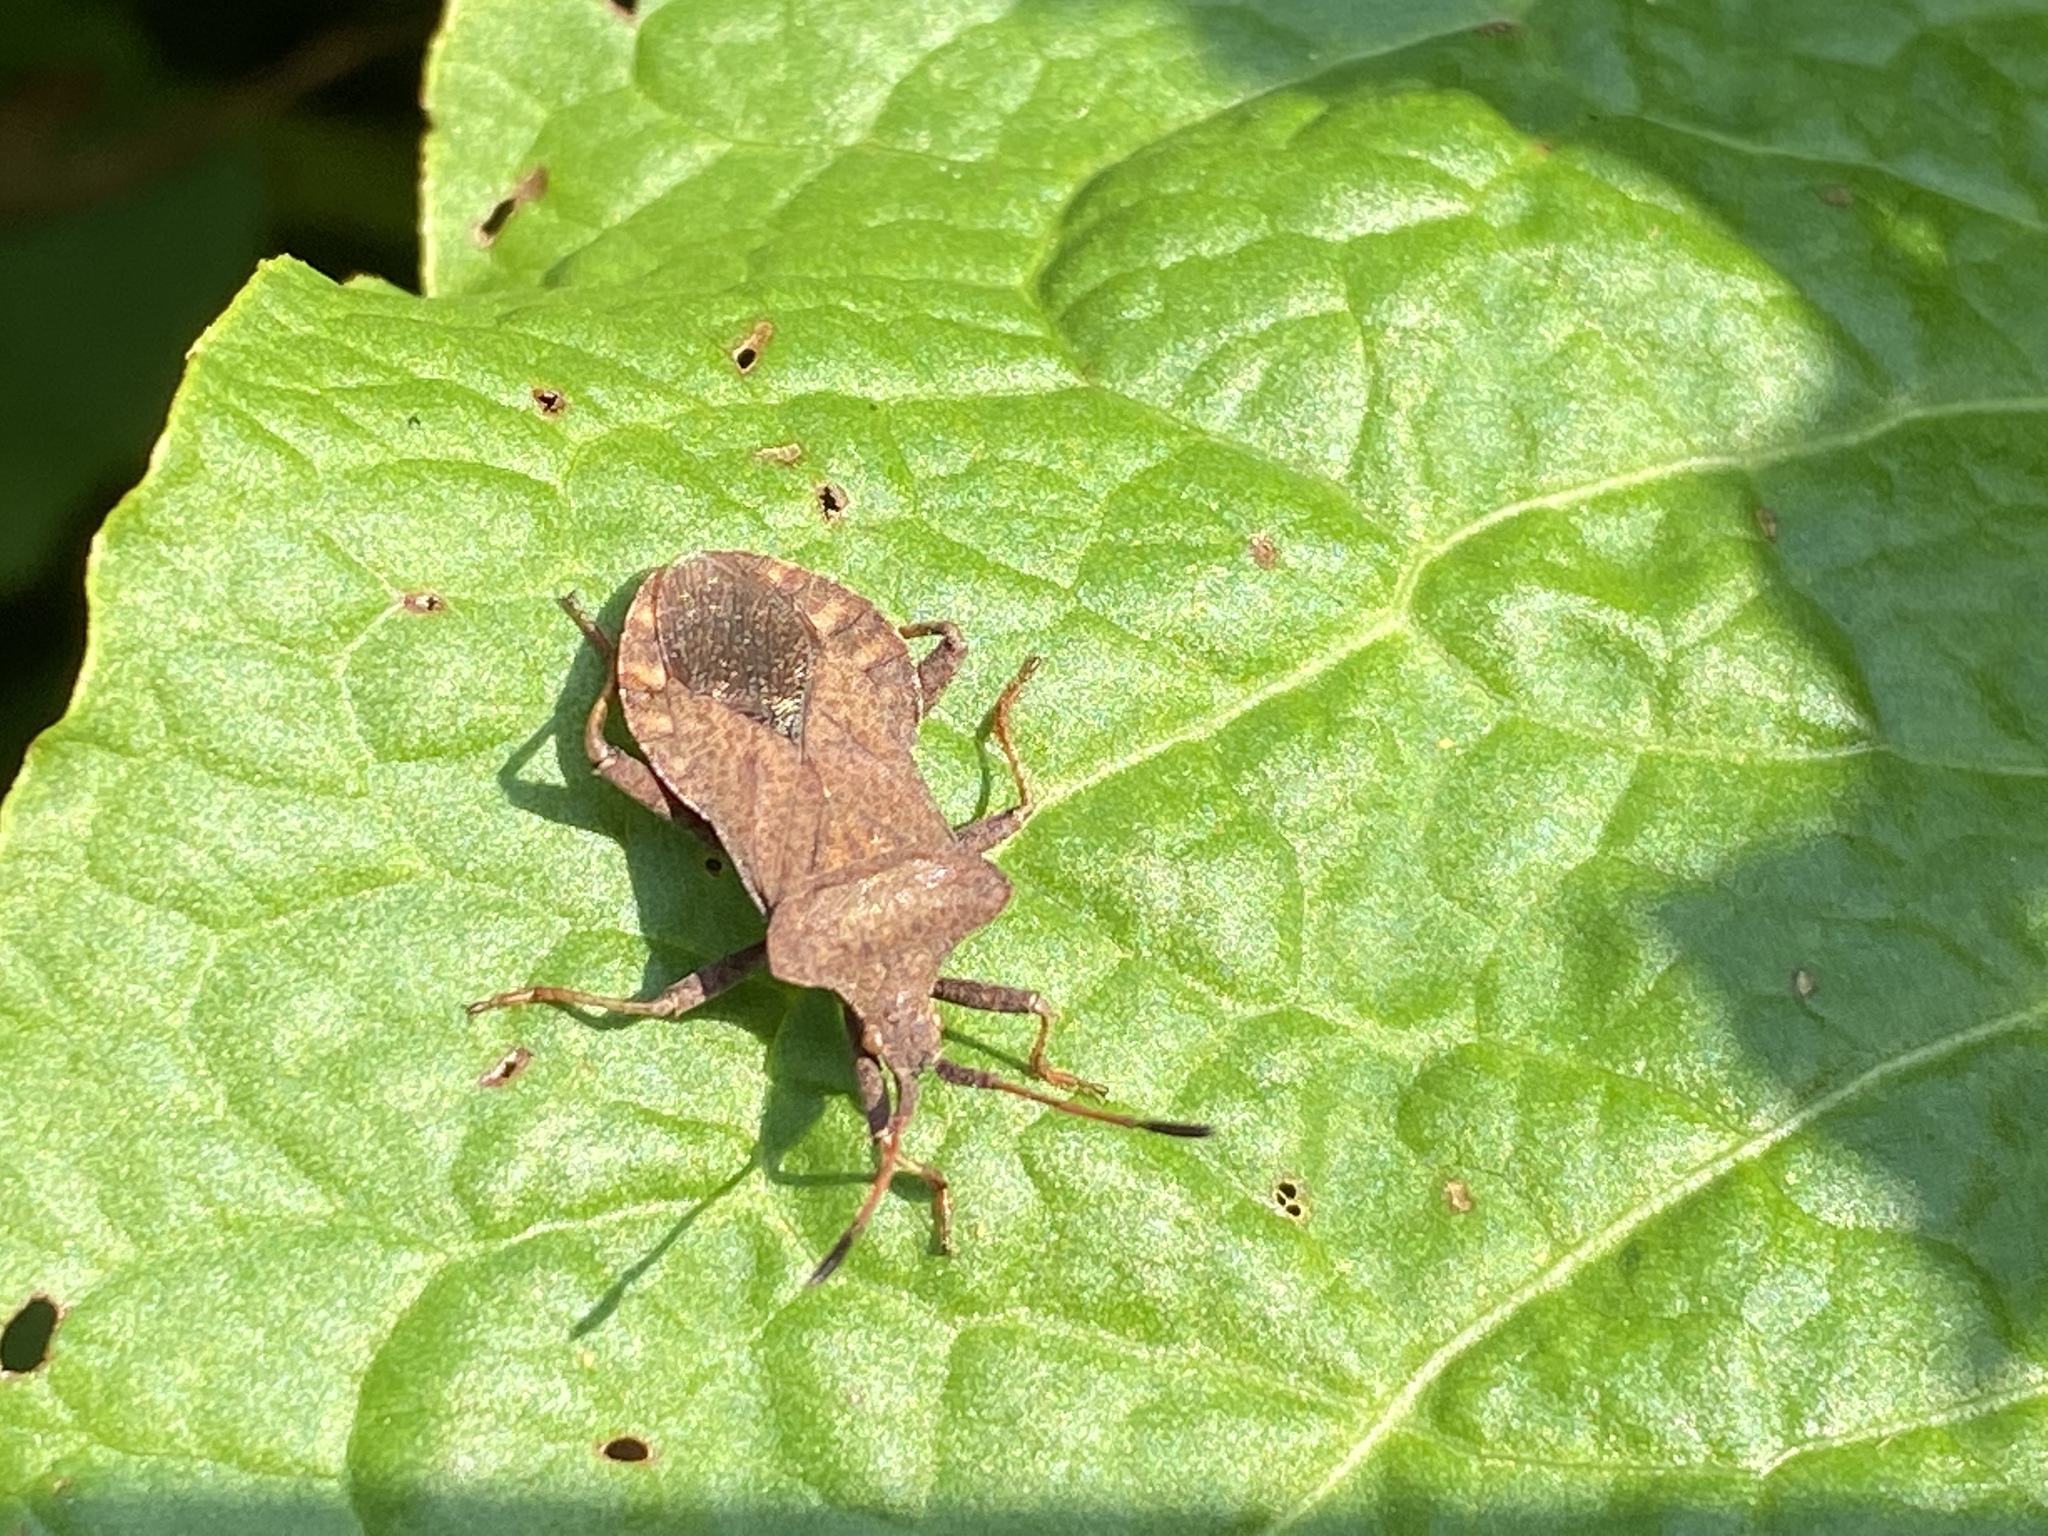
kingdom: Animalia
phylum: Arthropoda
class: Insecta
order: Hemiptera
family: Coreidae
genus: Coreus
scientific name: Coreus marginatus
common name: Dock bug
